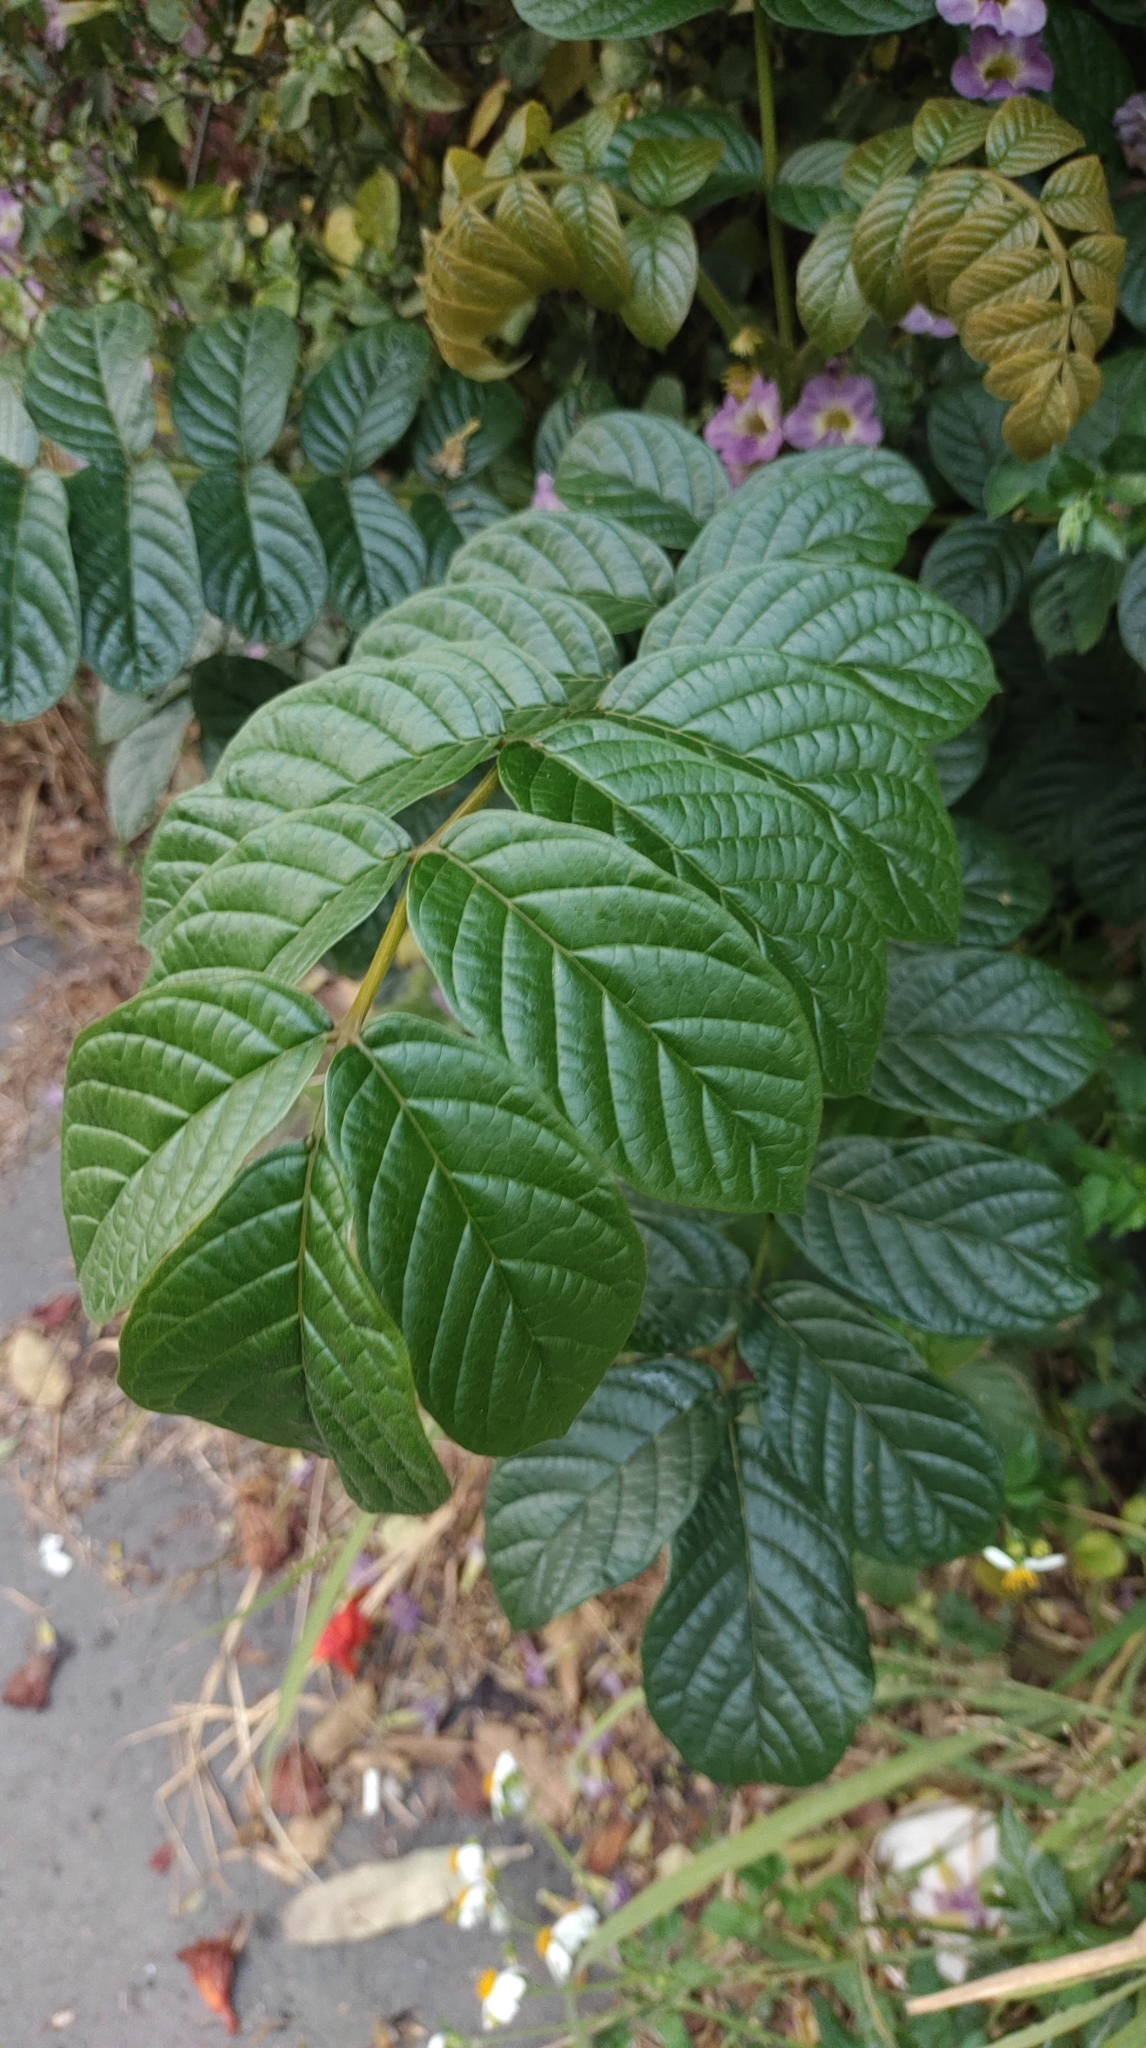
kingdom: Plantae
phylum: Tracheophyta
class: Magnoliopsida
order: Lamiales
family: Bignoniaceae
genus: Spathodea
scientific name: Spathodea campanulata
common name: African tuliptree
